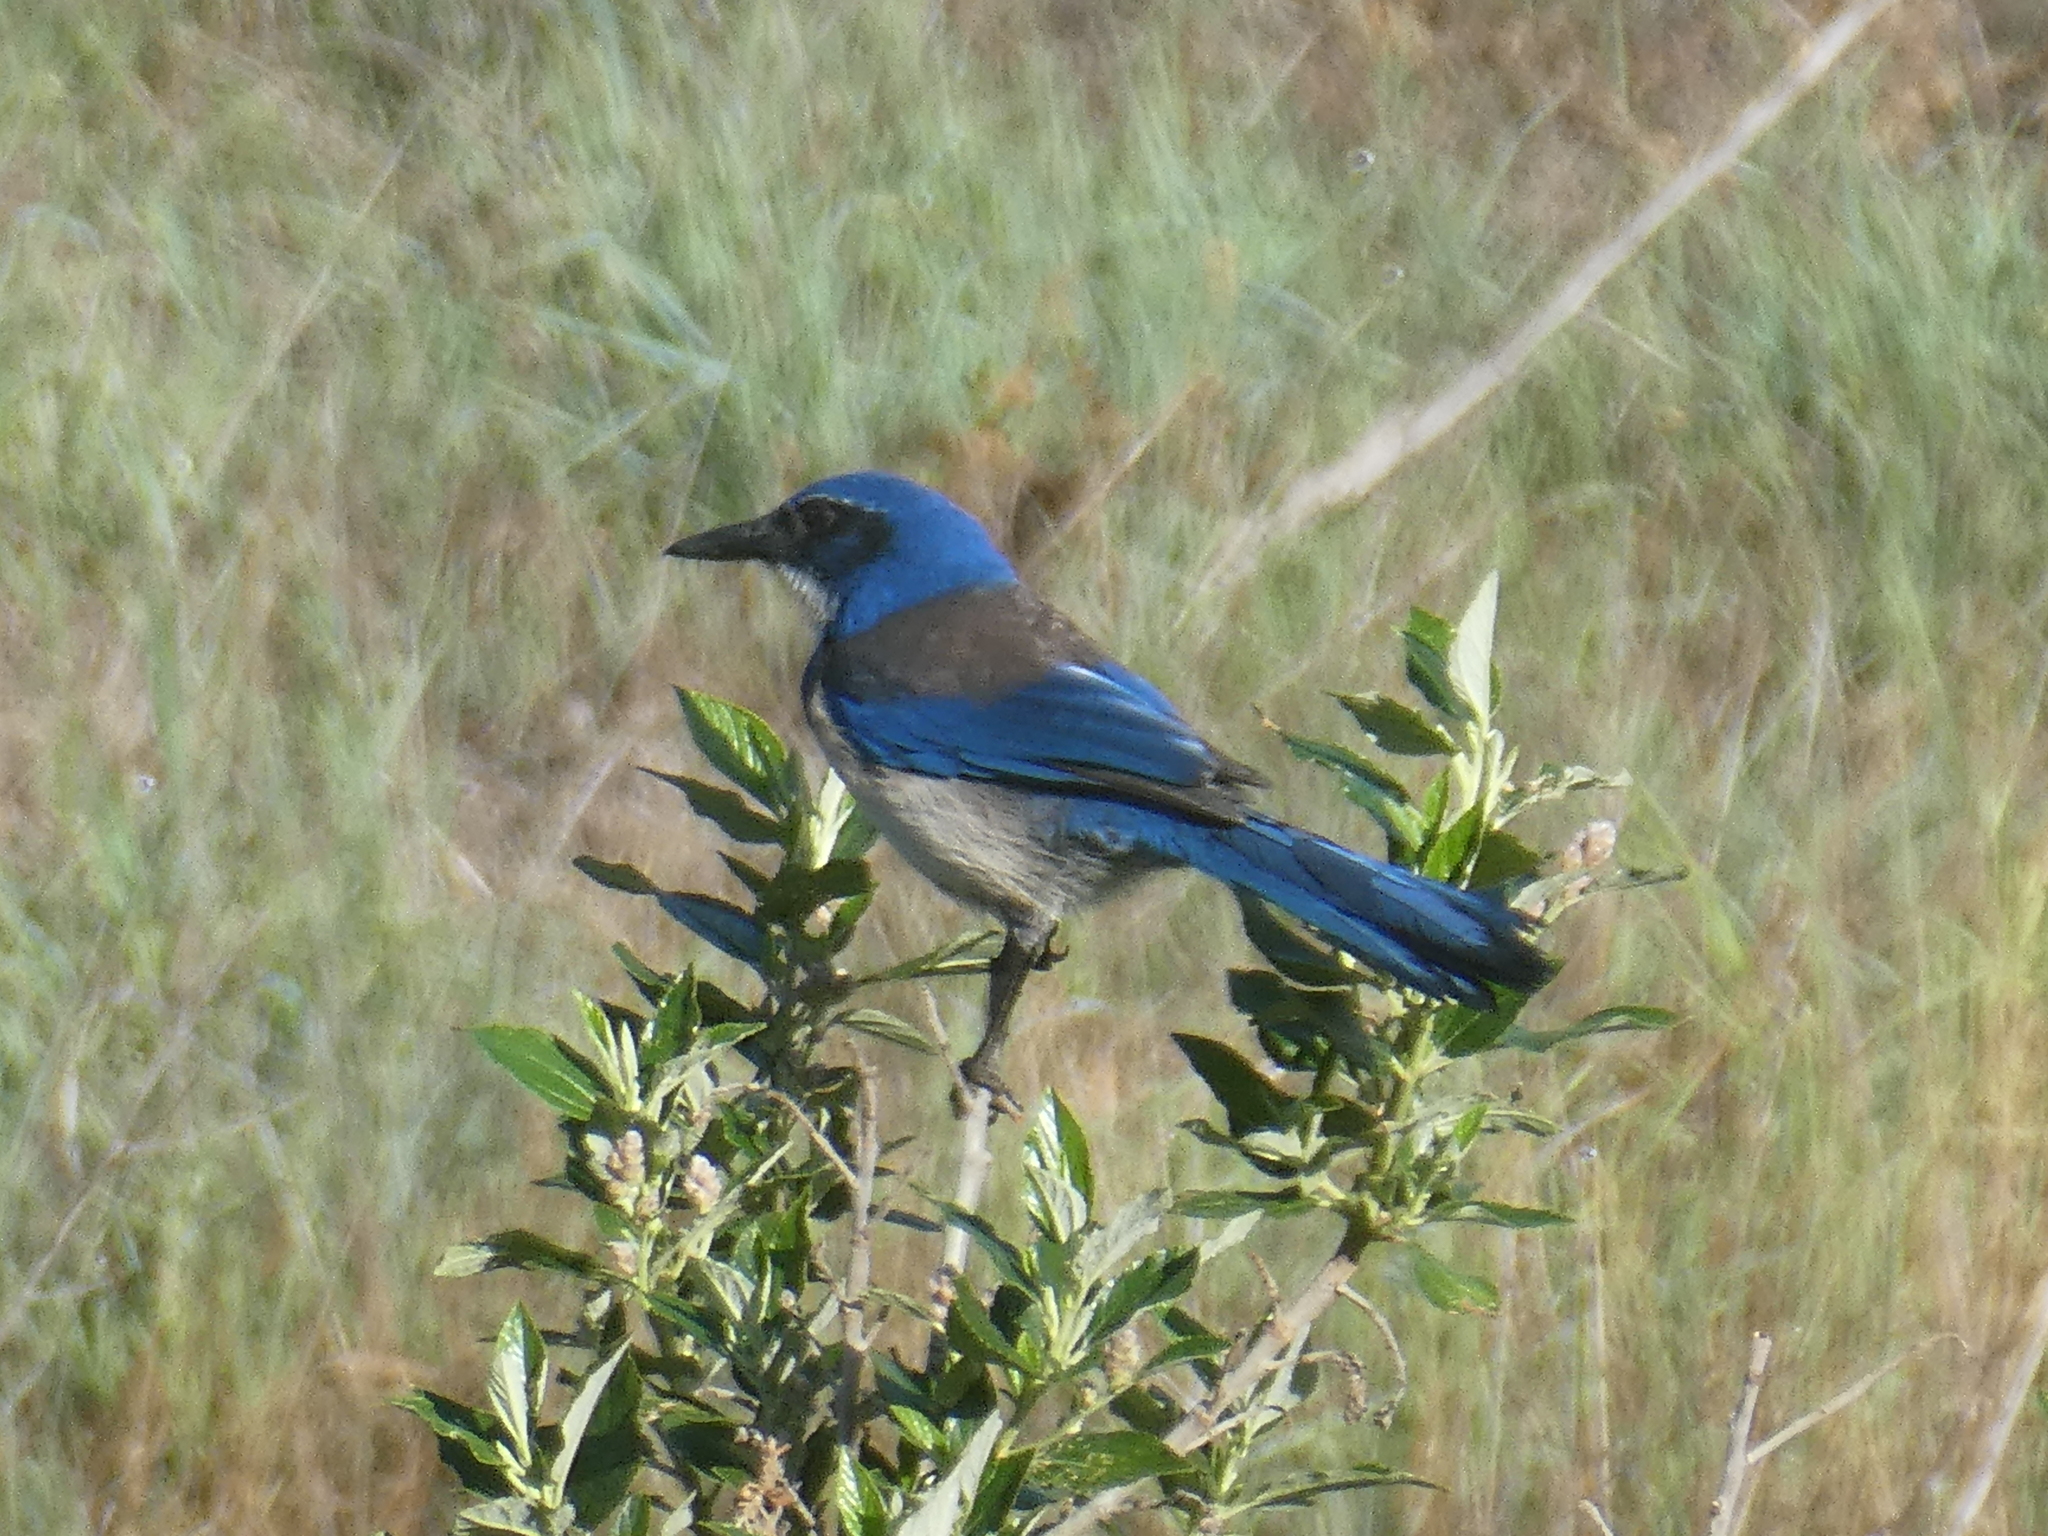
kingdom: Animalia
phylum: Chordata
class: Aves
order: Passeriformes
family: Corvidae
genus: Aphelocoma
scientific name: Aphelocoma insularis
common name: Island scrub-jay
